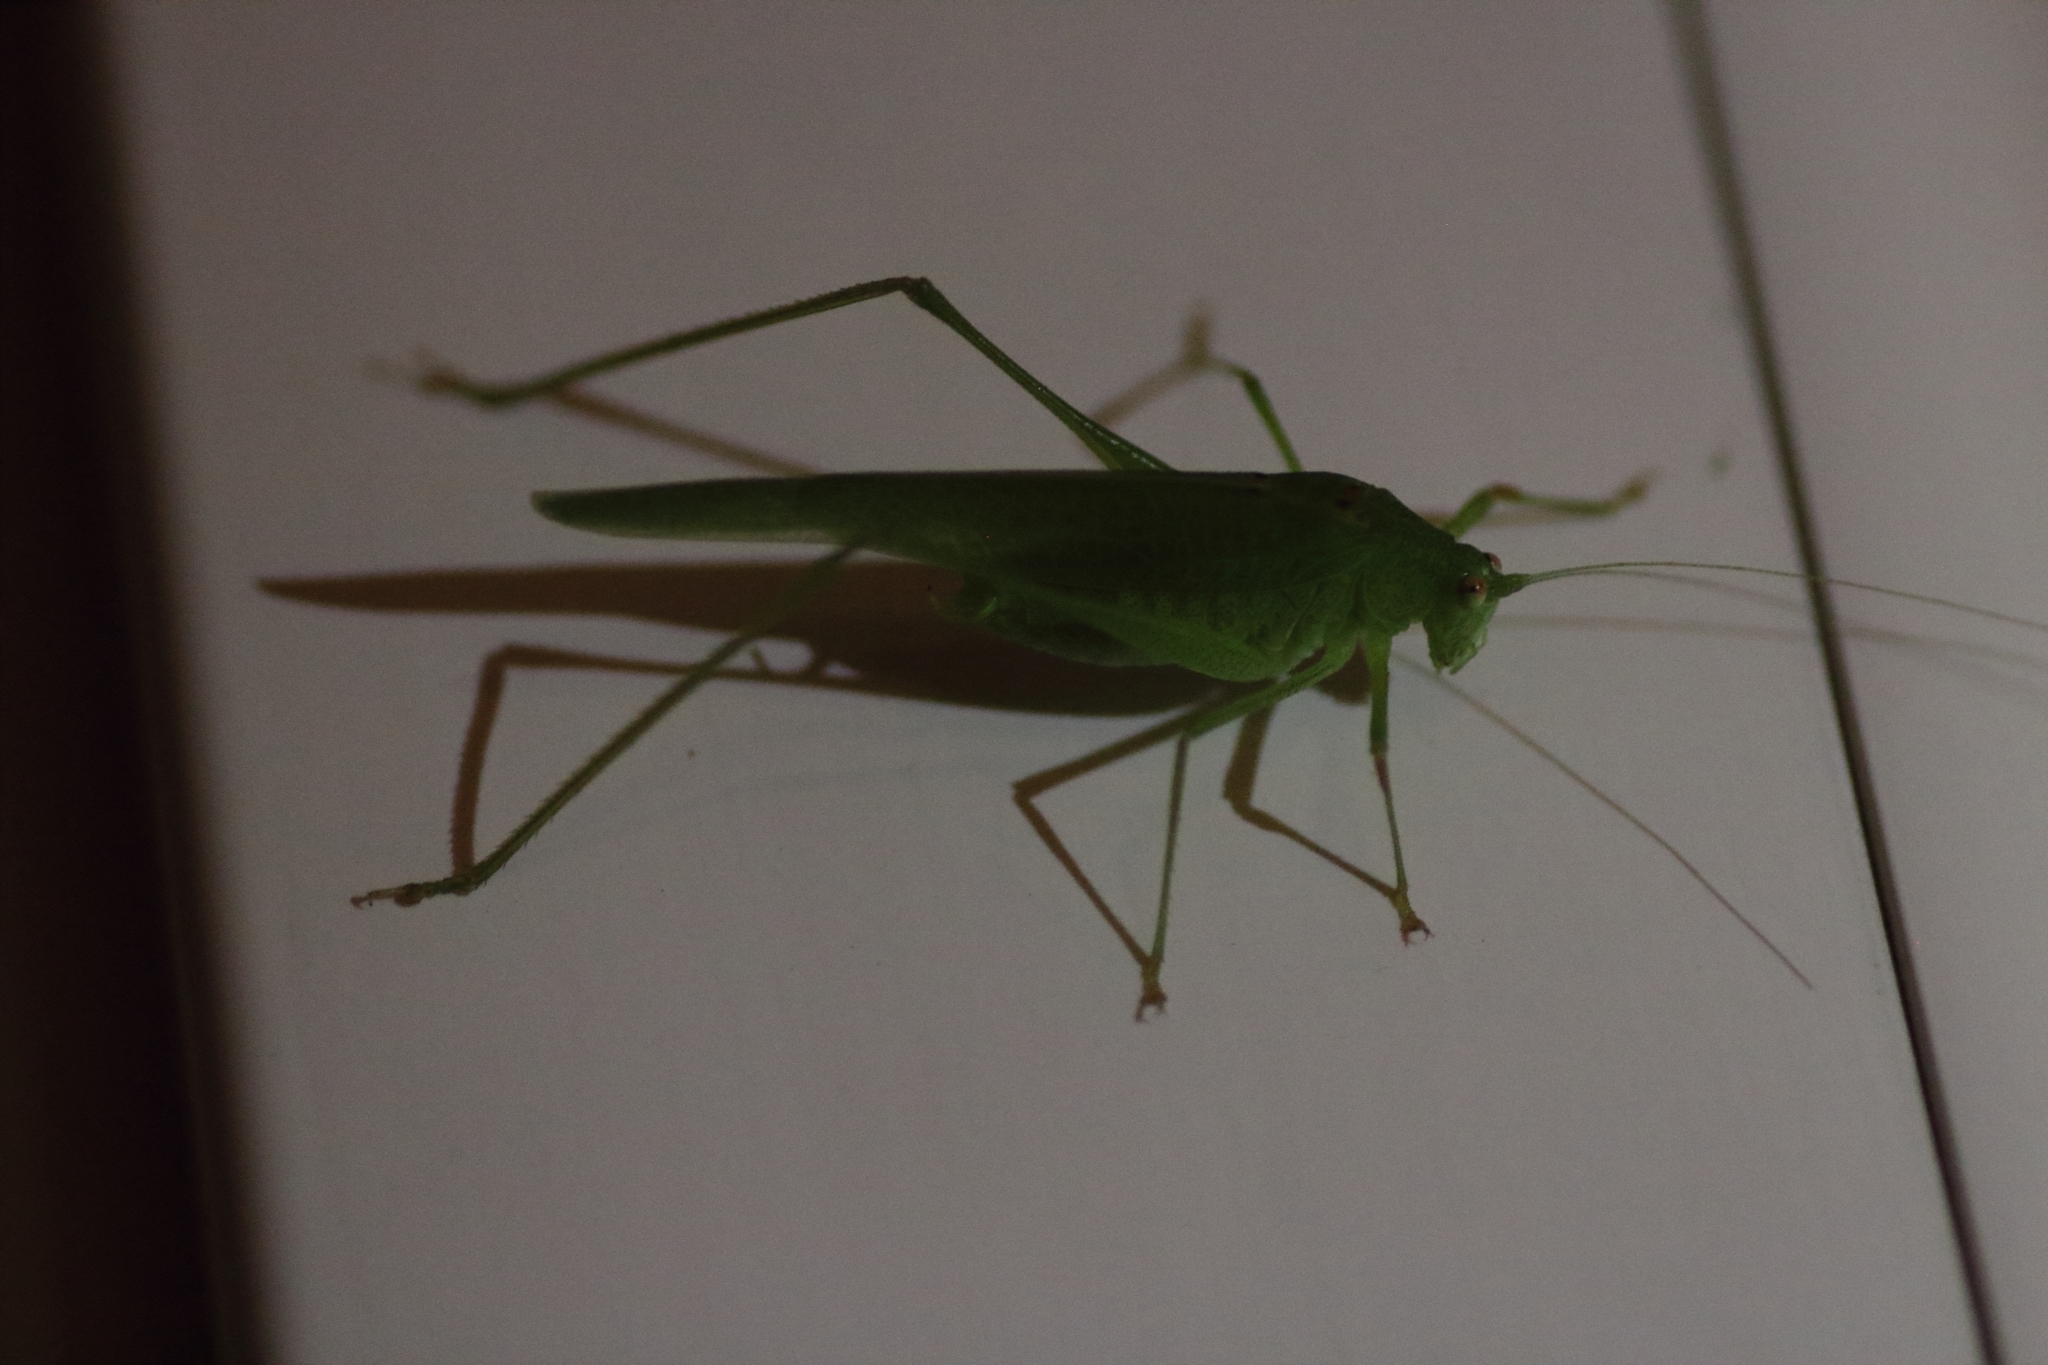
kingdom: Animalia
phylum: Arthropoda
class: Insecta
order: Orthoptera
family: Tettigoniidae
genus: Phaneroptera
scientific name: Phaneroptera nana
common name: Southern sickle bush-cricket
